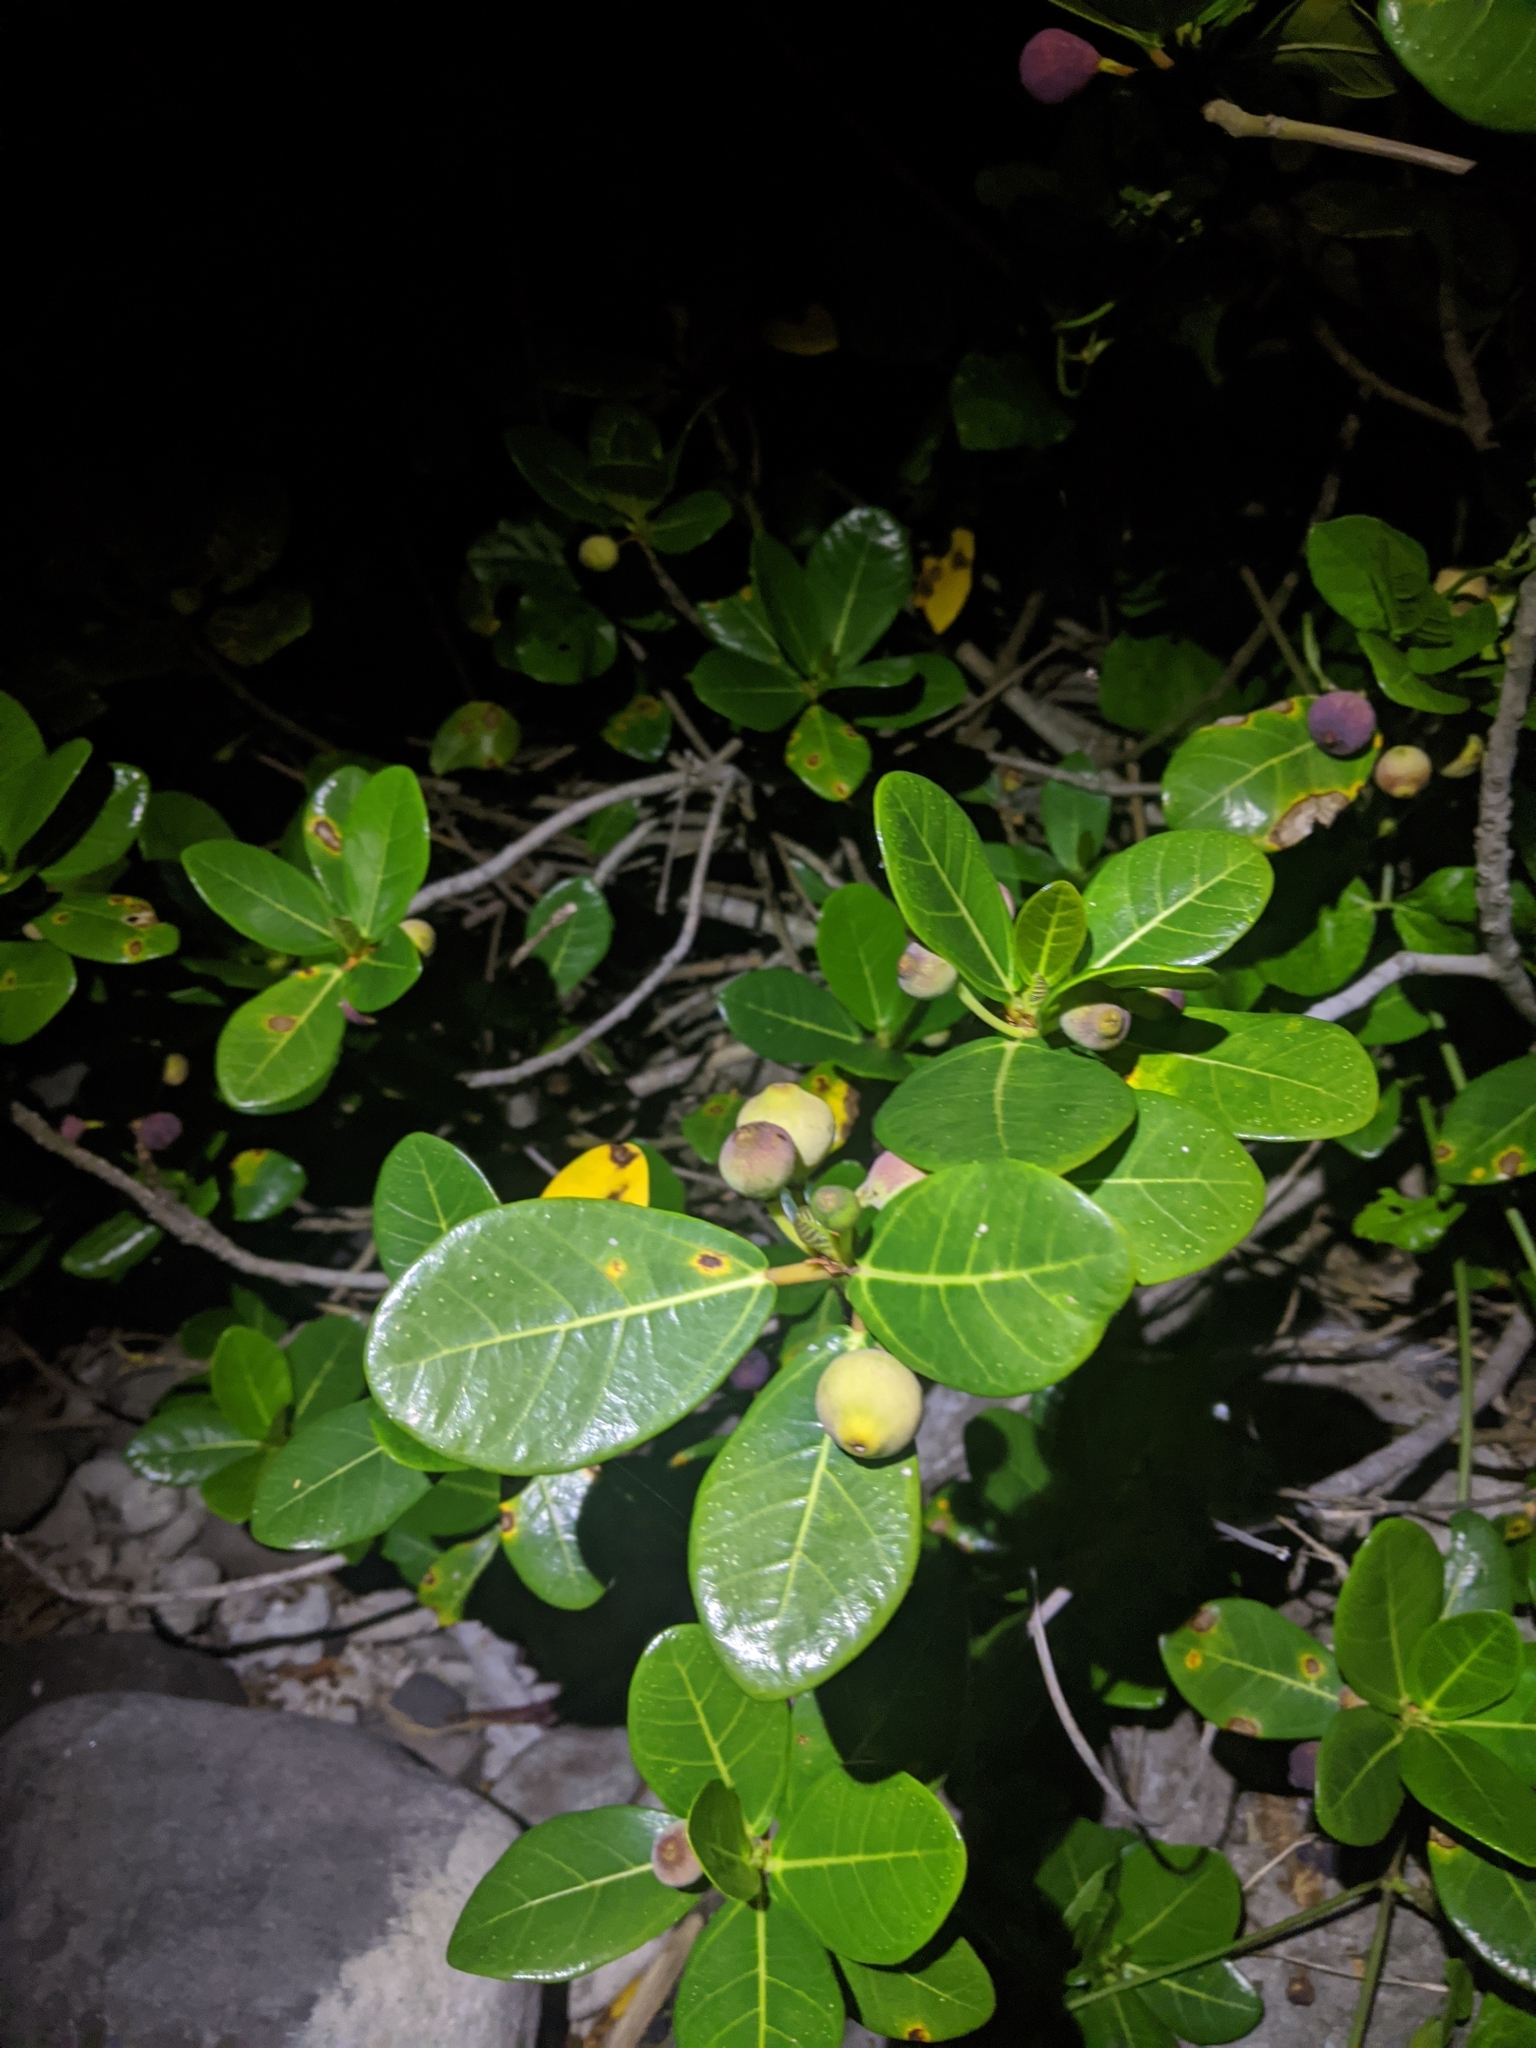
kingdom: Plantae
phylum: Tracheophyta
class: Magnoliopsida
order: Rosales
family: Moraceae
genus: Ficus
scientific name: Ficus pedunculosa
